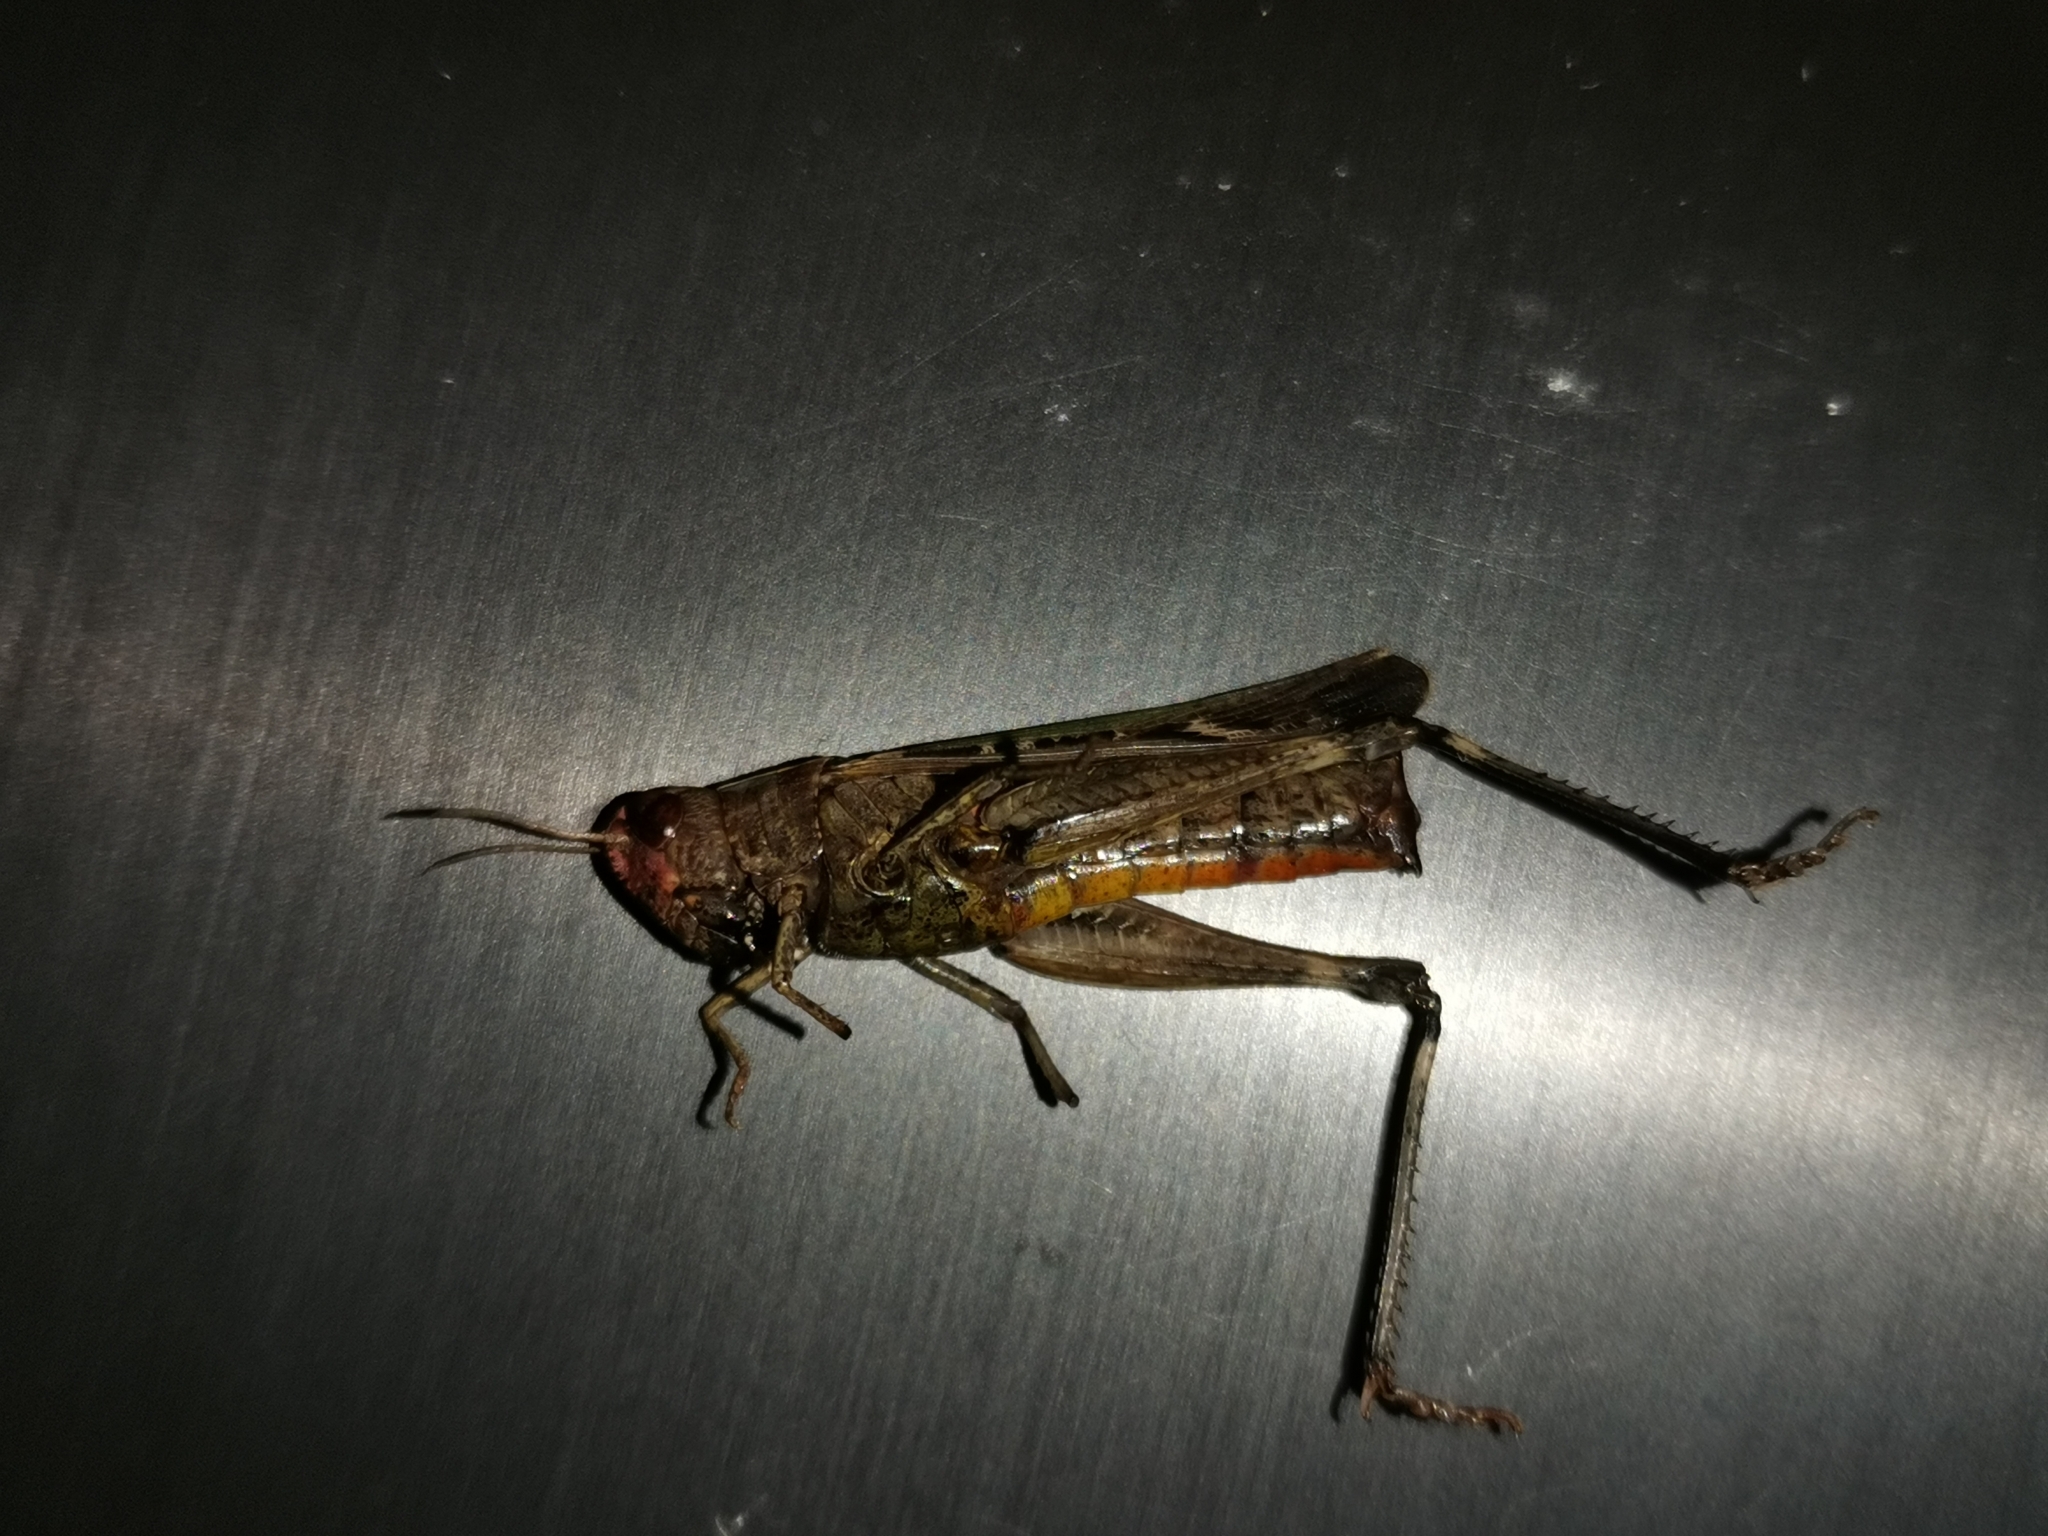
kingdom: Animalia
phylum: Arthropoda
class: Insecta
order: Orthoptera
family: Acrididae
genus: Omocestus
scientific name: Omocestus rufipes
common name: Woodland grasshopper
